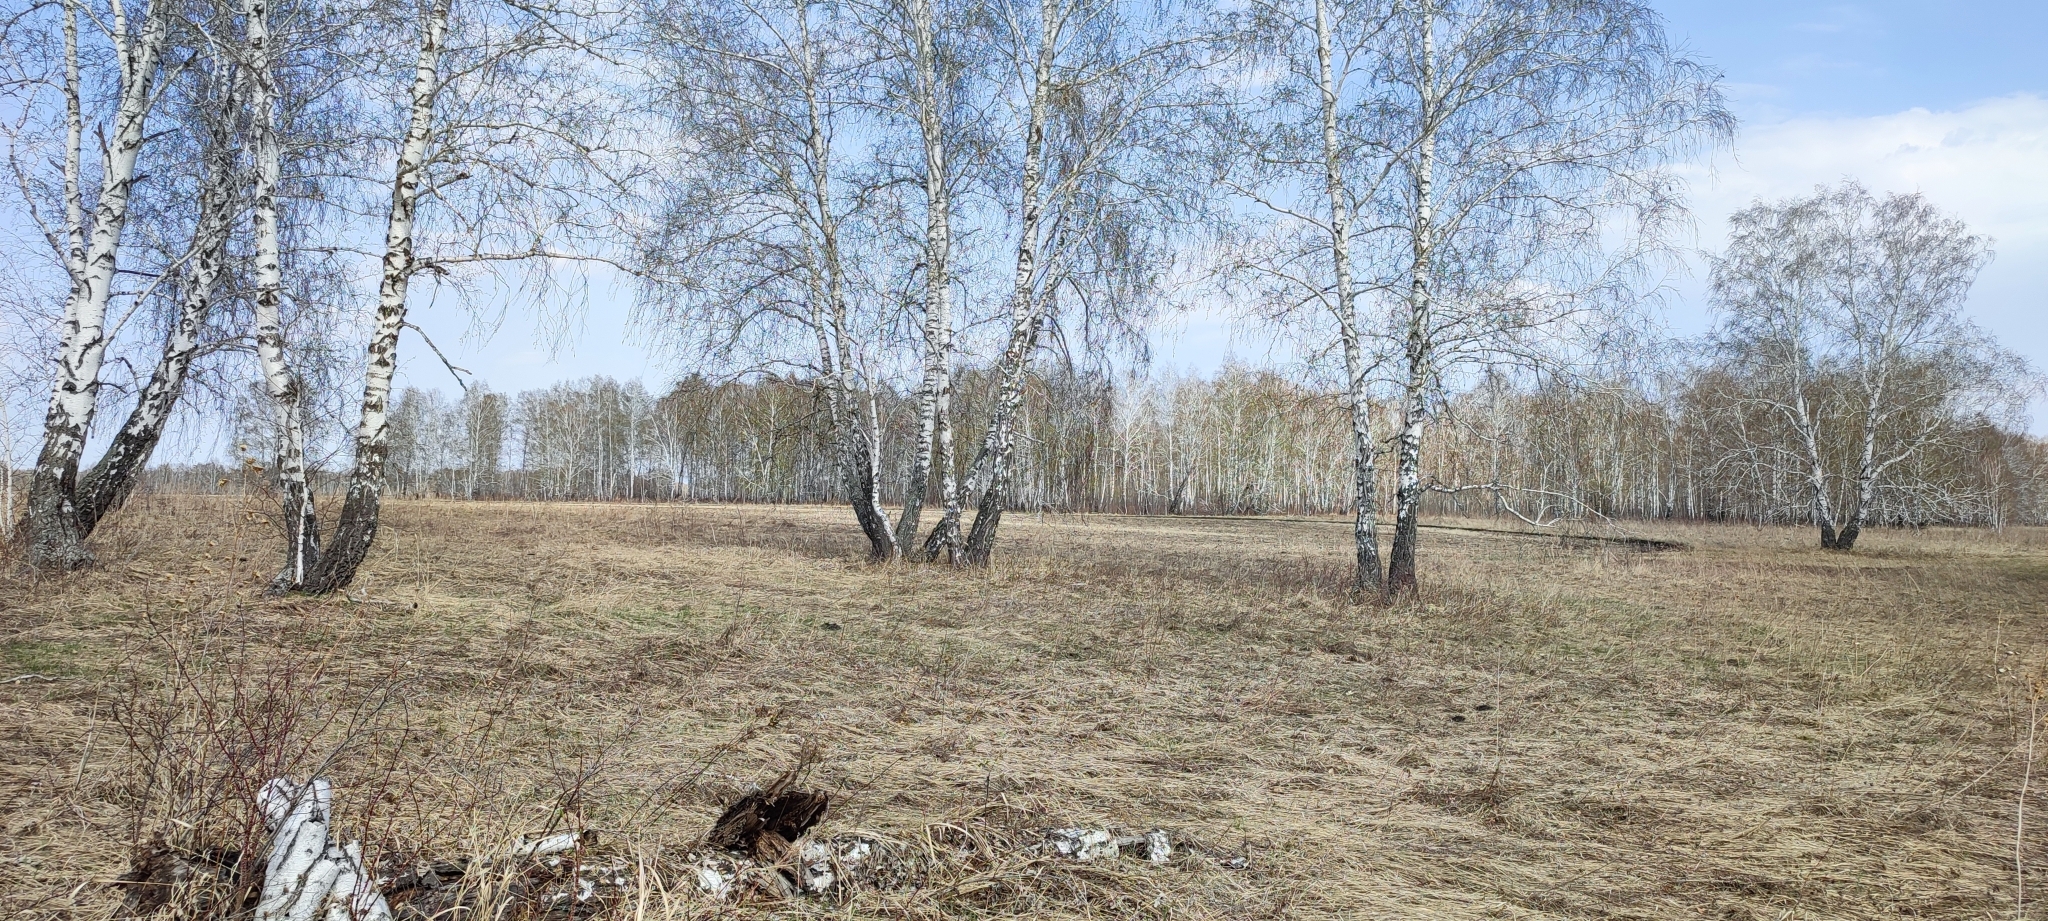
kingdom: Plantae
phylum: Tracheophyta
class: Magnoliopsida
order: Fagales
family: Betulaceae
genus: Betula
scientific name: Betula pendula
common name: Silver birch
